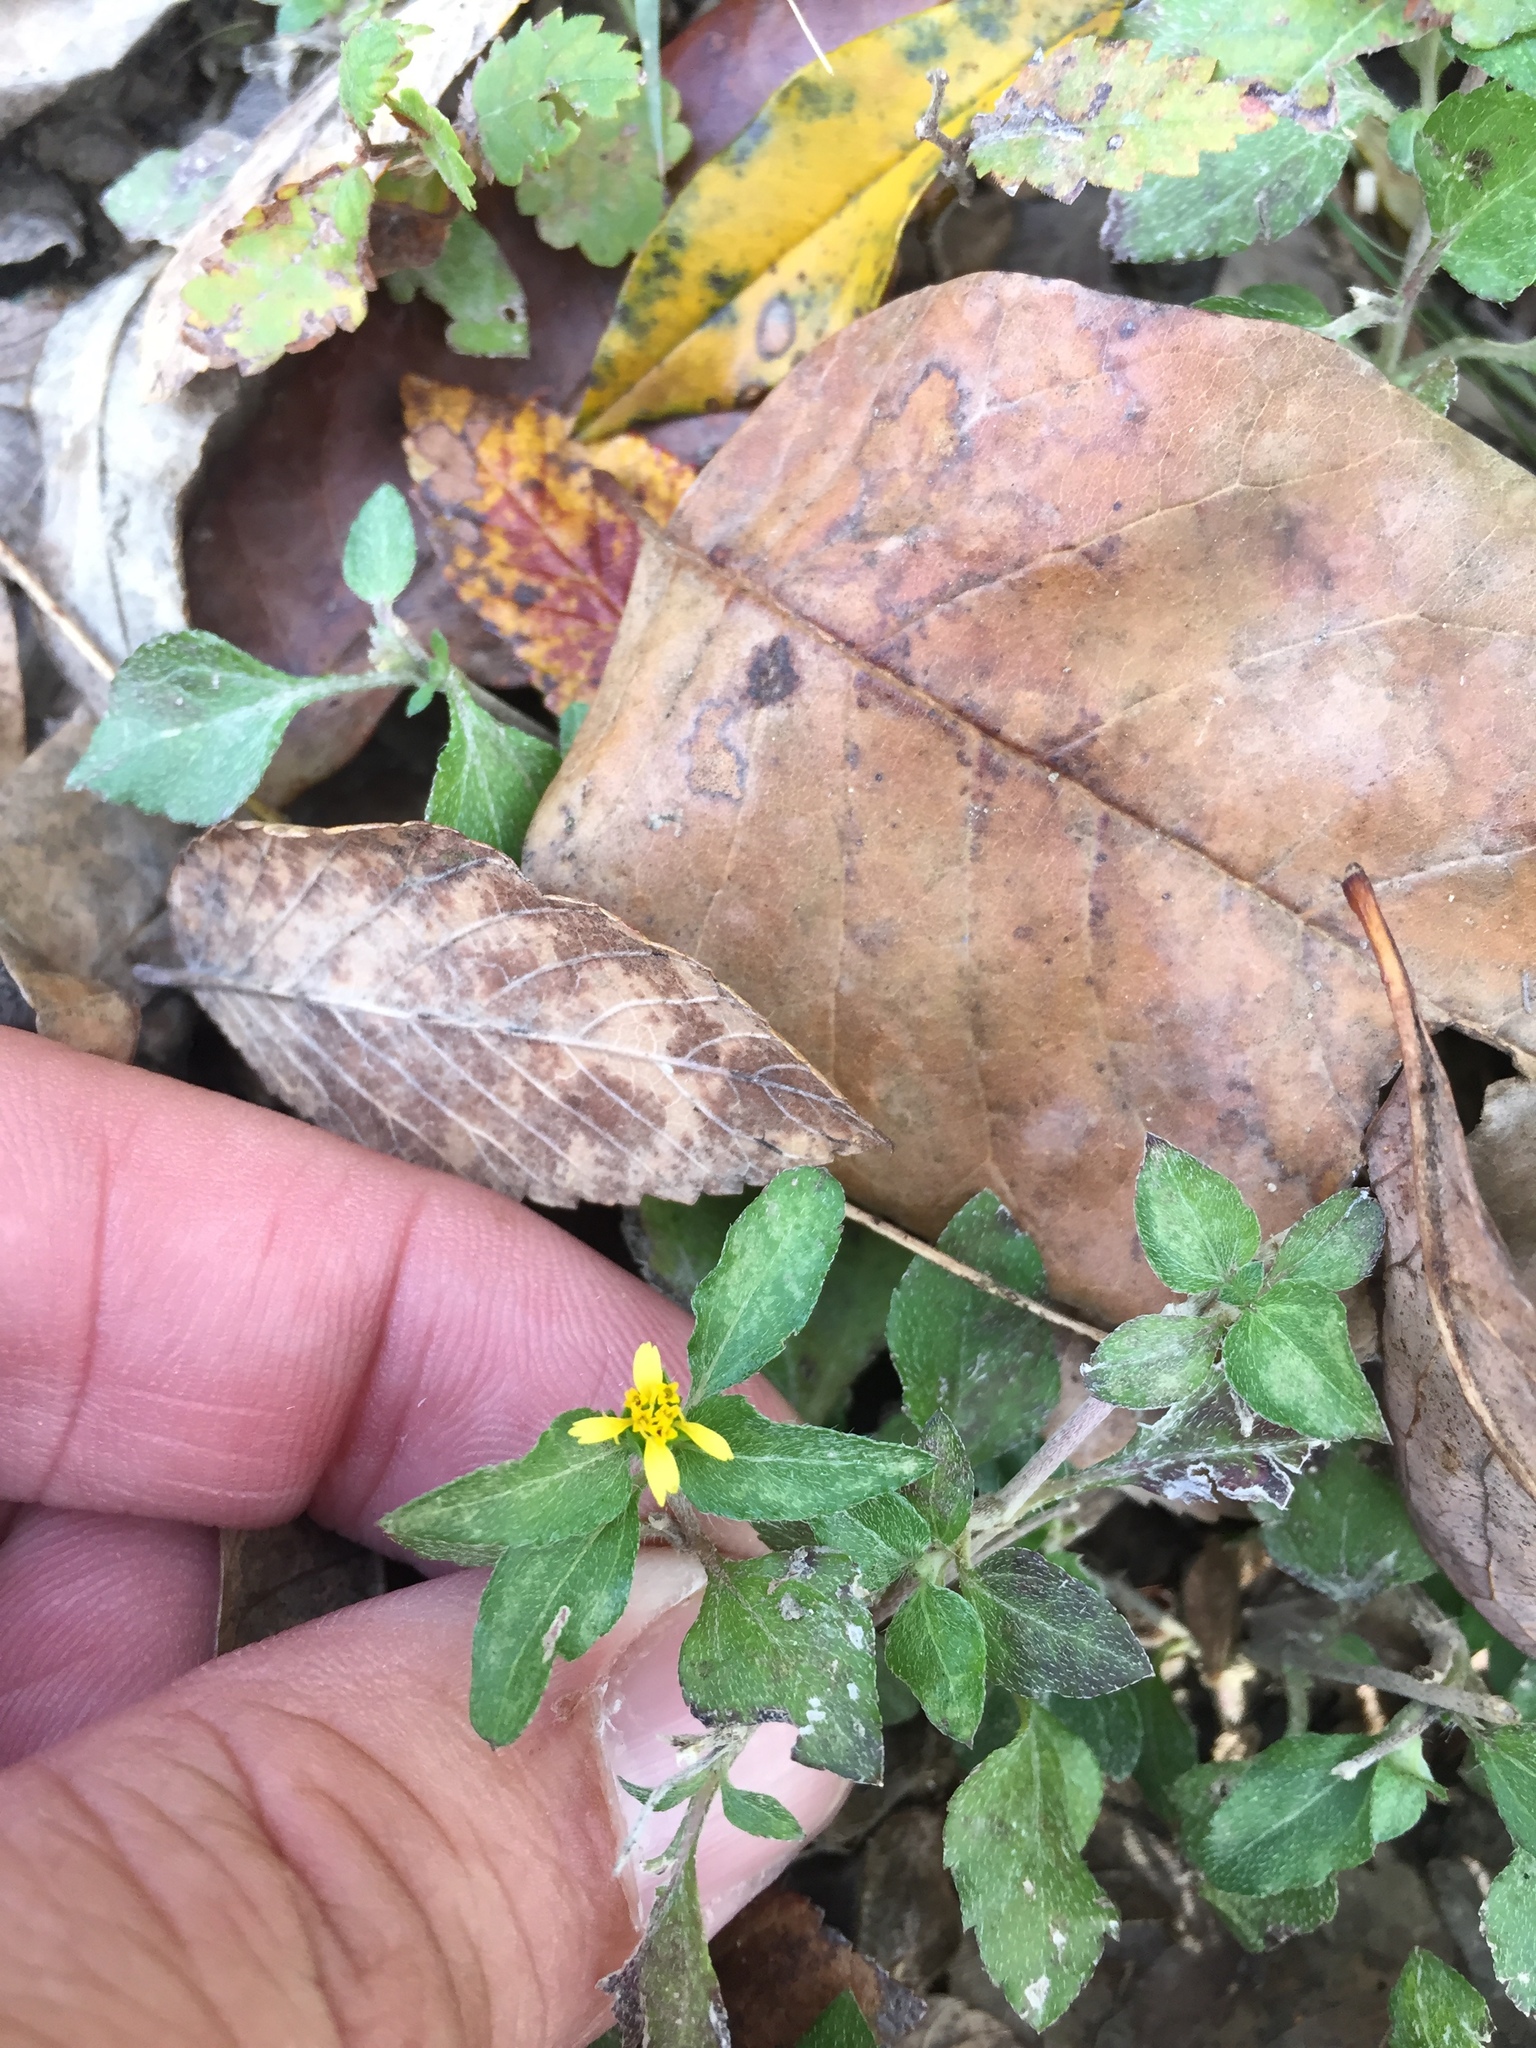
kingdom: Plantae
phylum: Tracheophyta
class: Magnoliopsida
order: Asterales
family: Asteraceae
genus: Calyptocarpus
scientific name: Calyptocarpus vialis
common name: Straggler daisy
